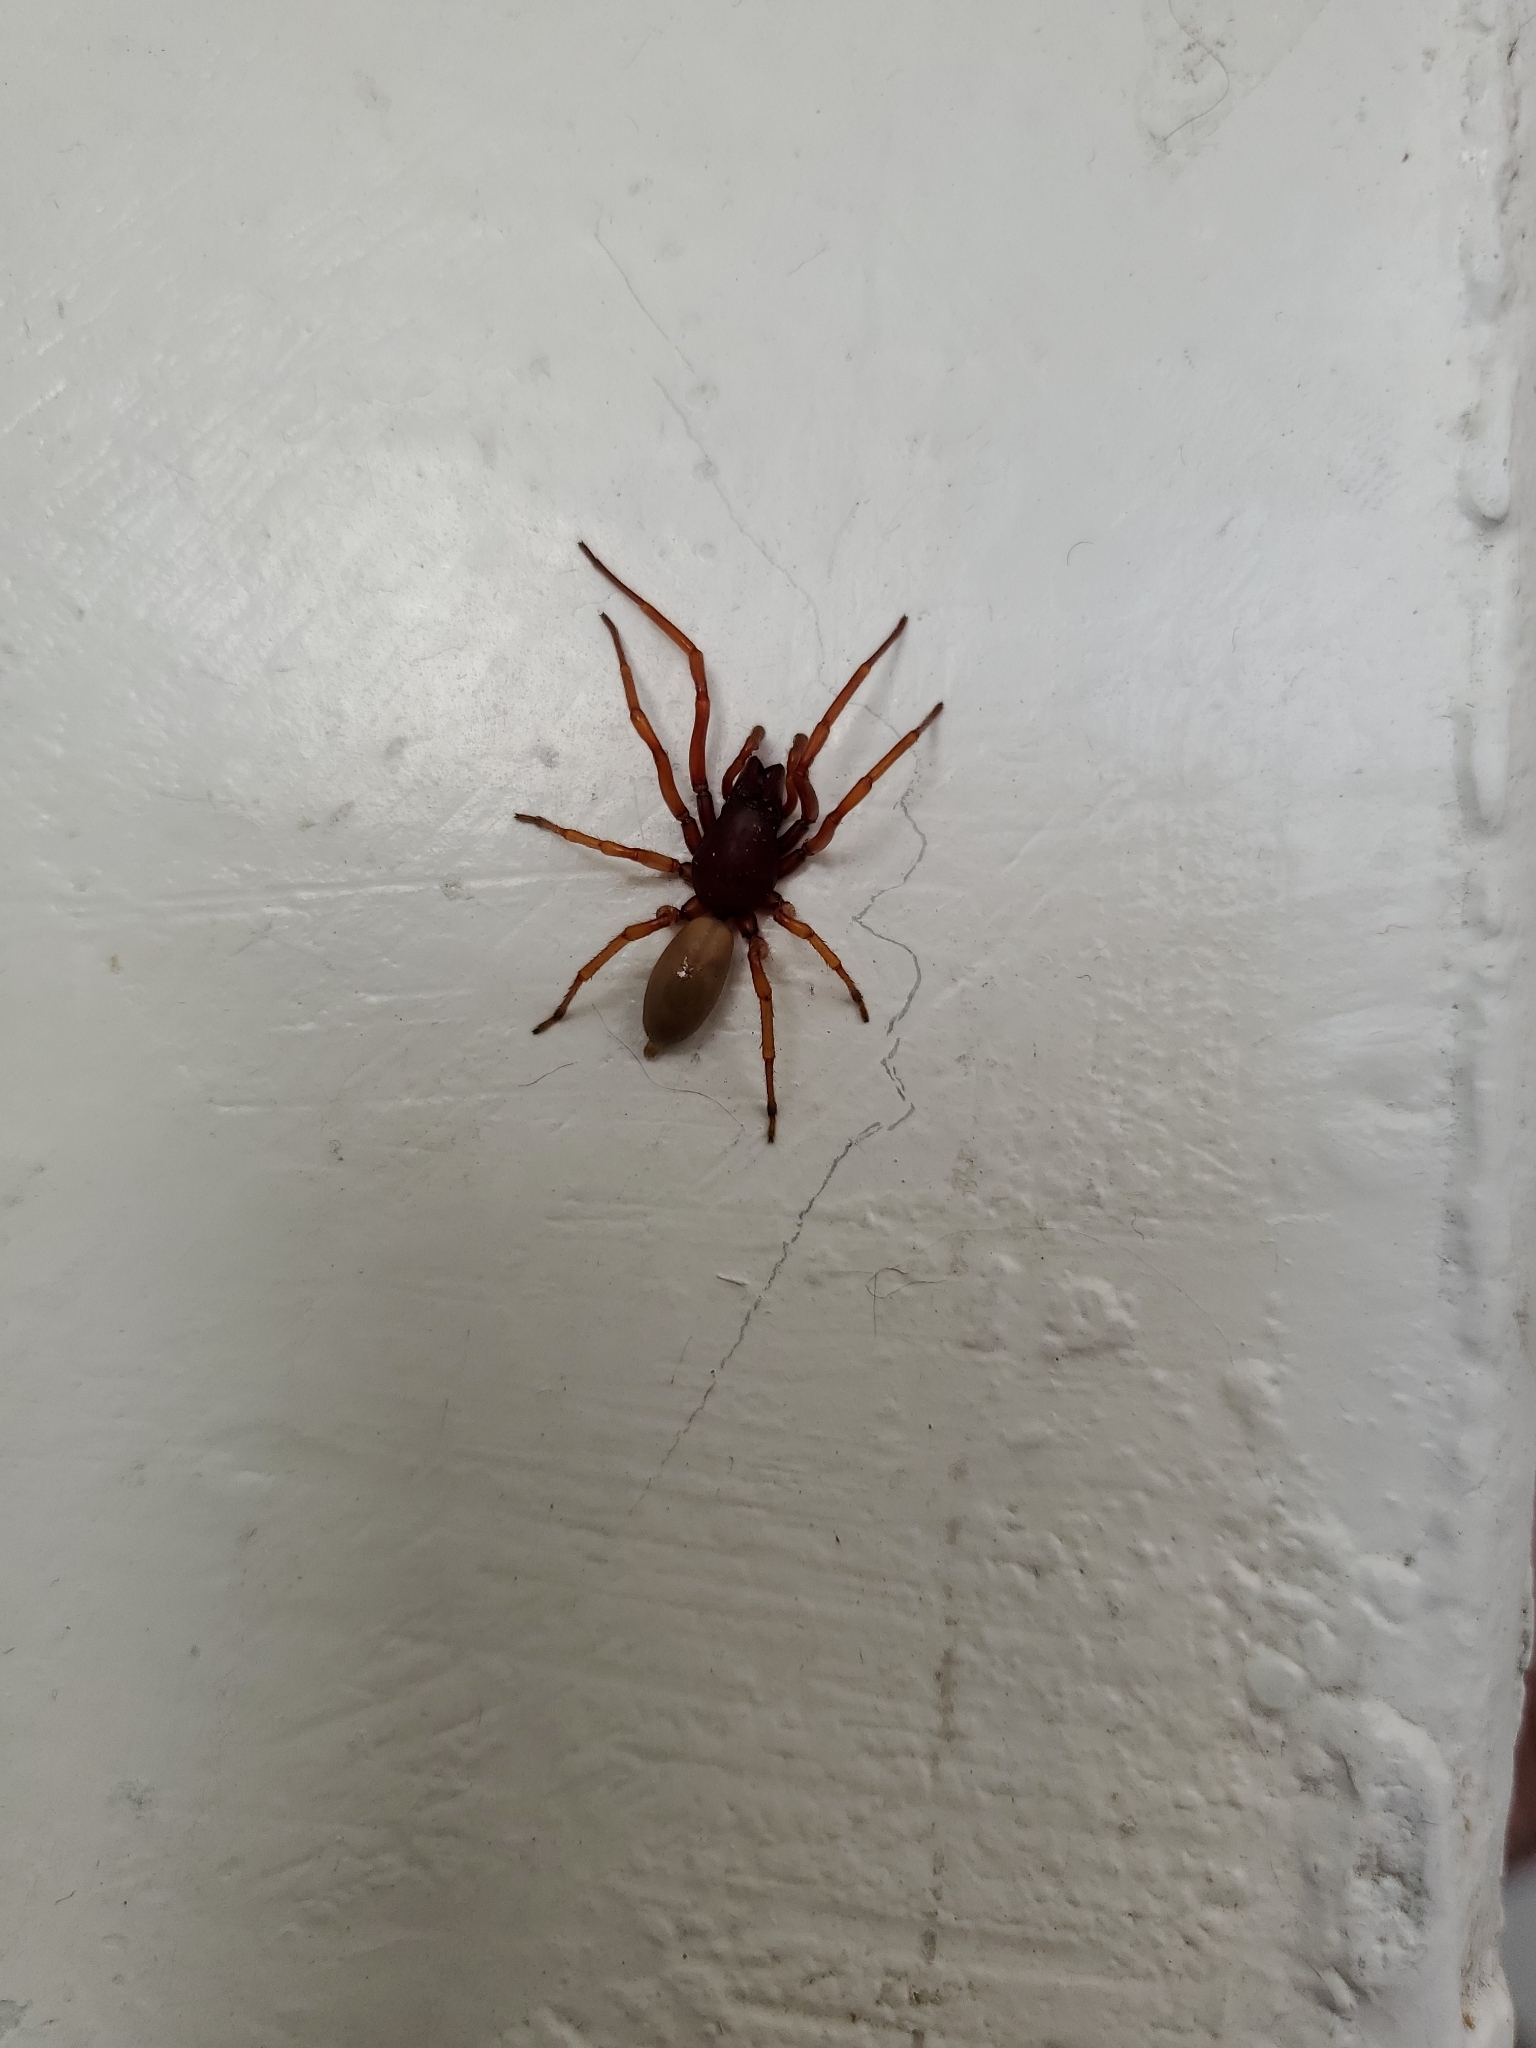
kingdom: Animalia
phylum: Arthropoda
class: Arachnida
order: Araneae
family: Dysderidae
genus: Dysdera
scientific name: Dysdera crocata
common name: Woodlouse spider
